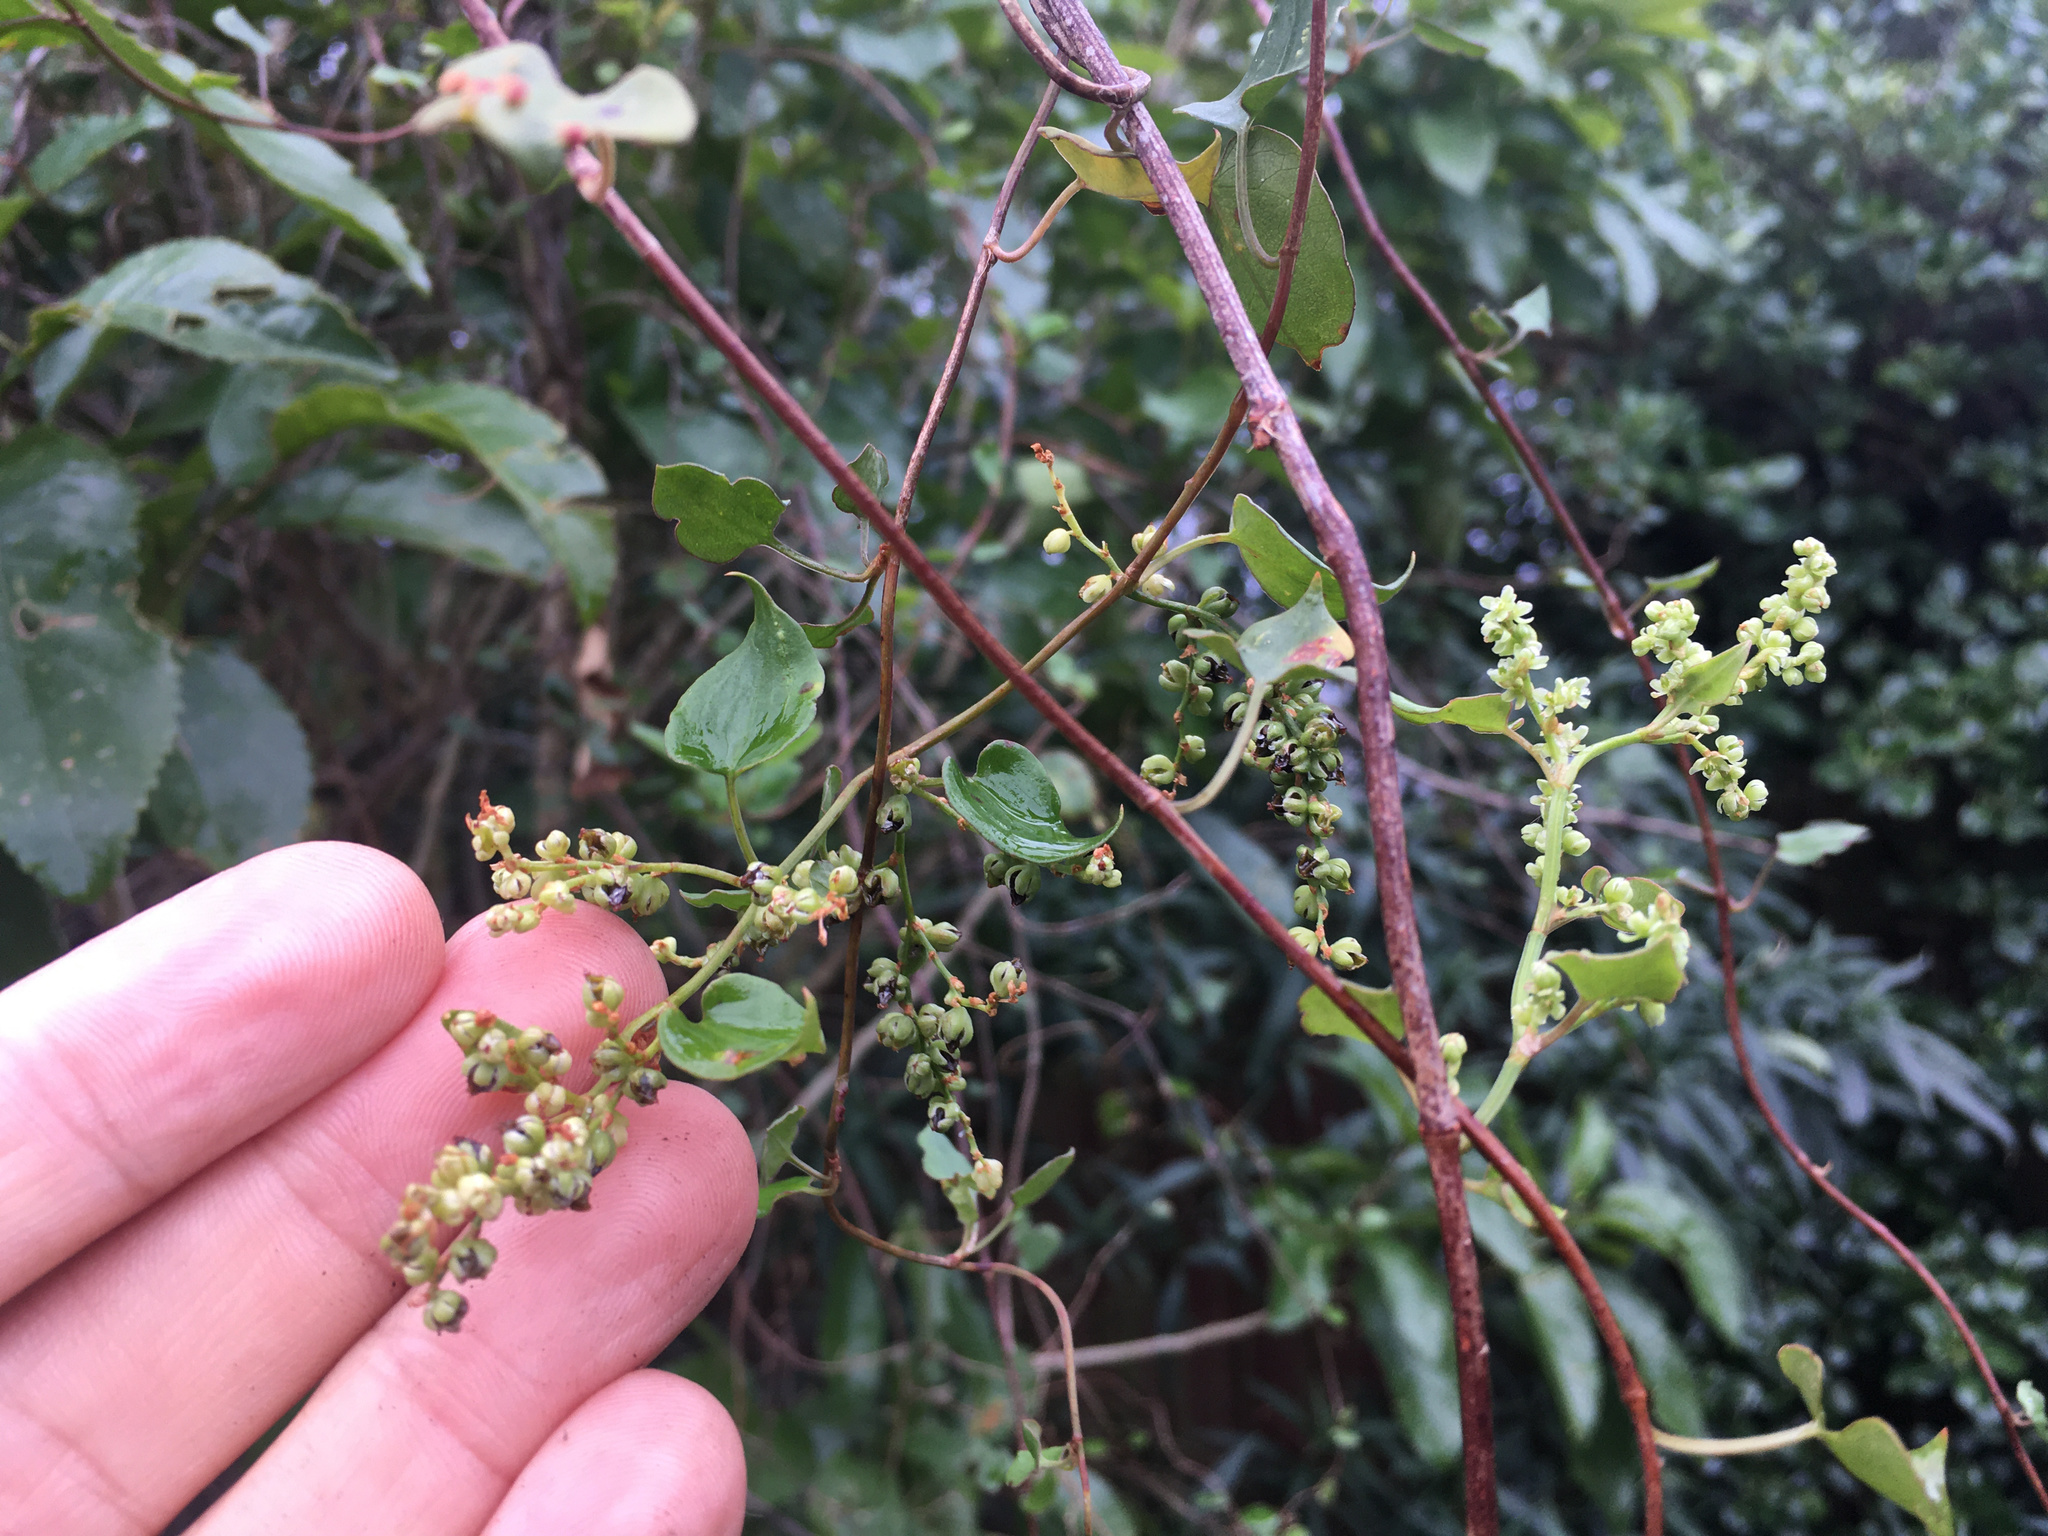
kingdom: Plantae
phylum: Tracheophyta
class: Magnoliopsida
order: Caryophyllales
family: Polygonaceae
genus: Muehlenbeckia
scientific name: Muehlenbeckia australis
